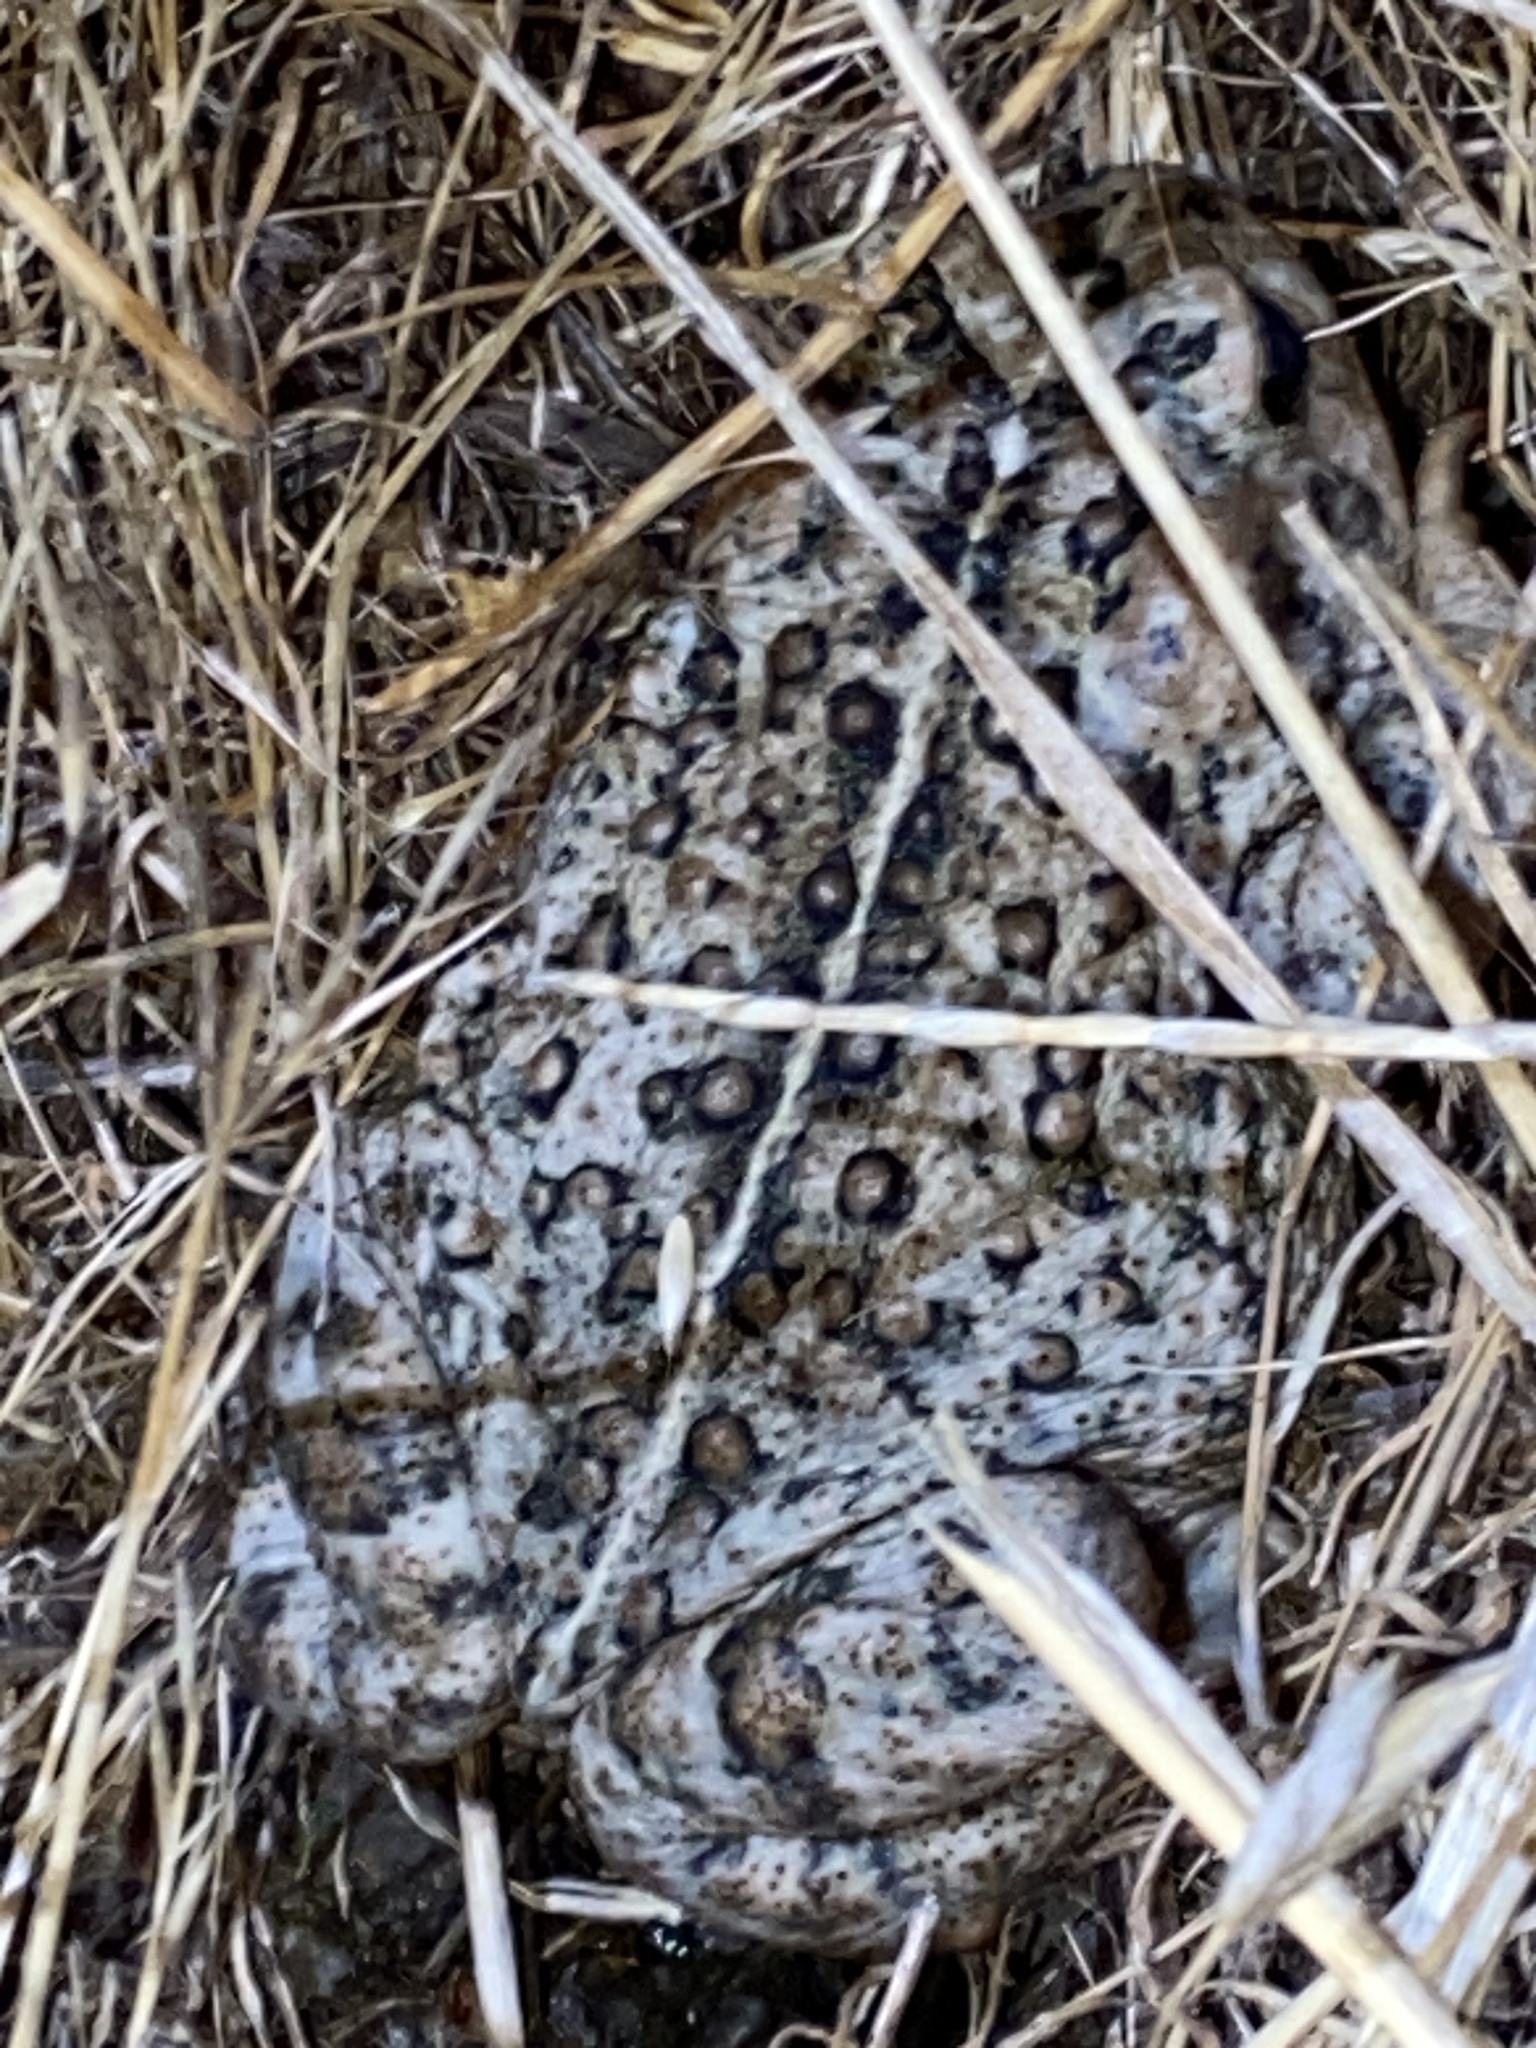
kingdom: Animalia
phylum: Chordata
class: Amphibia
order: Anura
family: Bufonidae
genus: Anaxyrus
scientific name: Anaxyrus boreas
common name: Western toad
